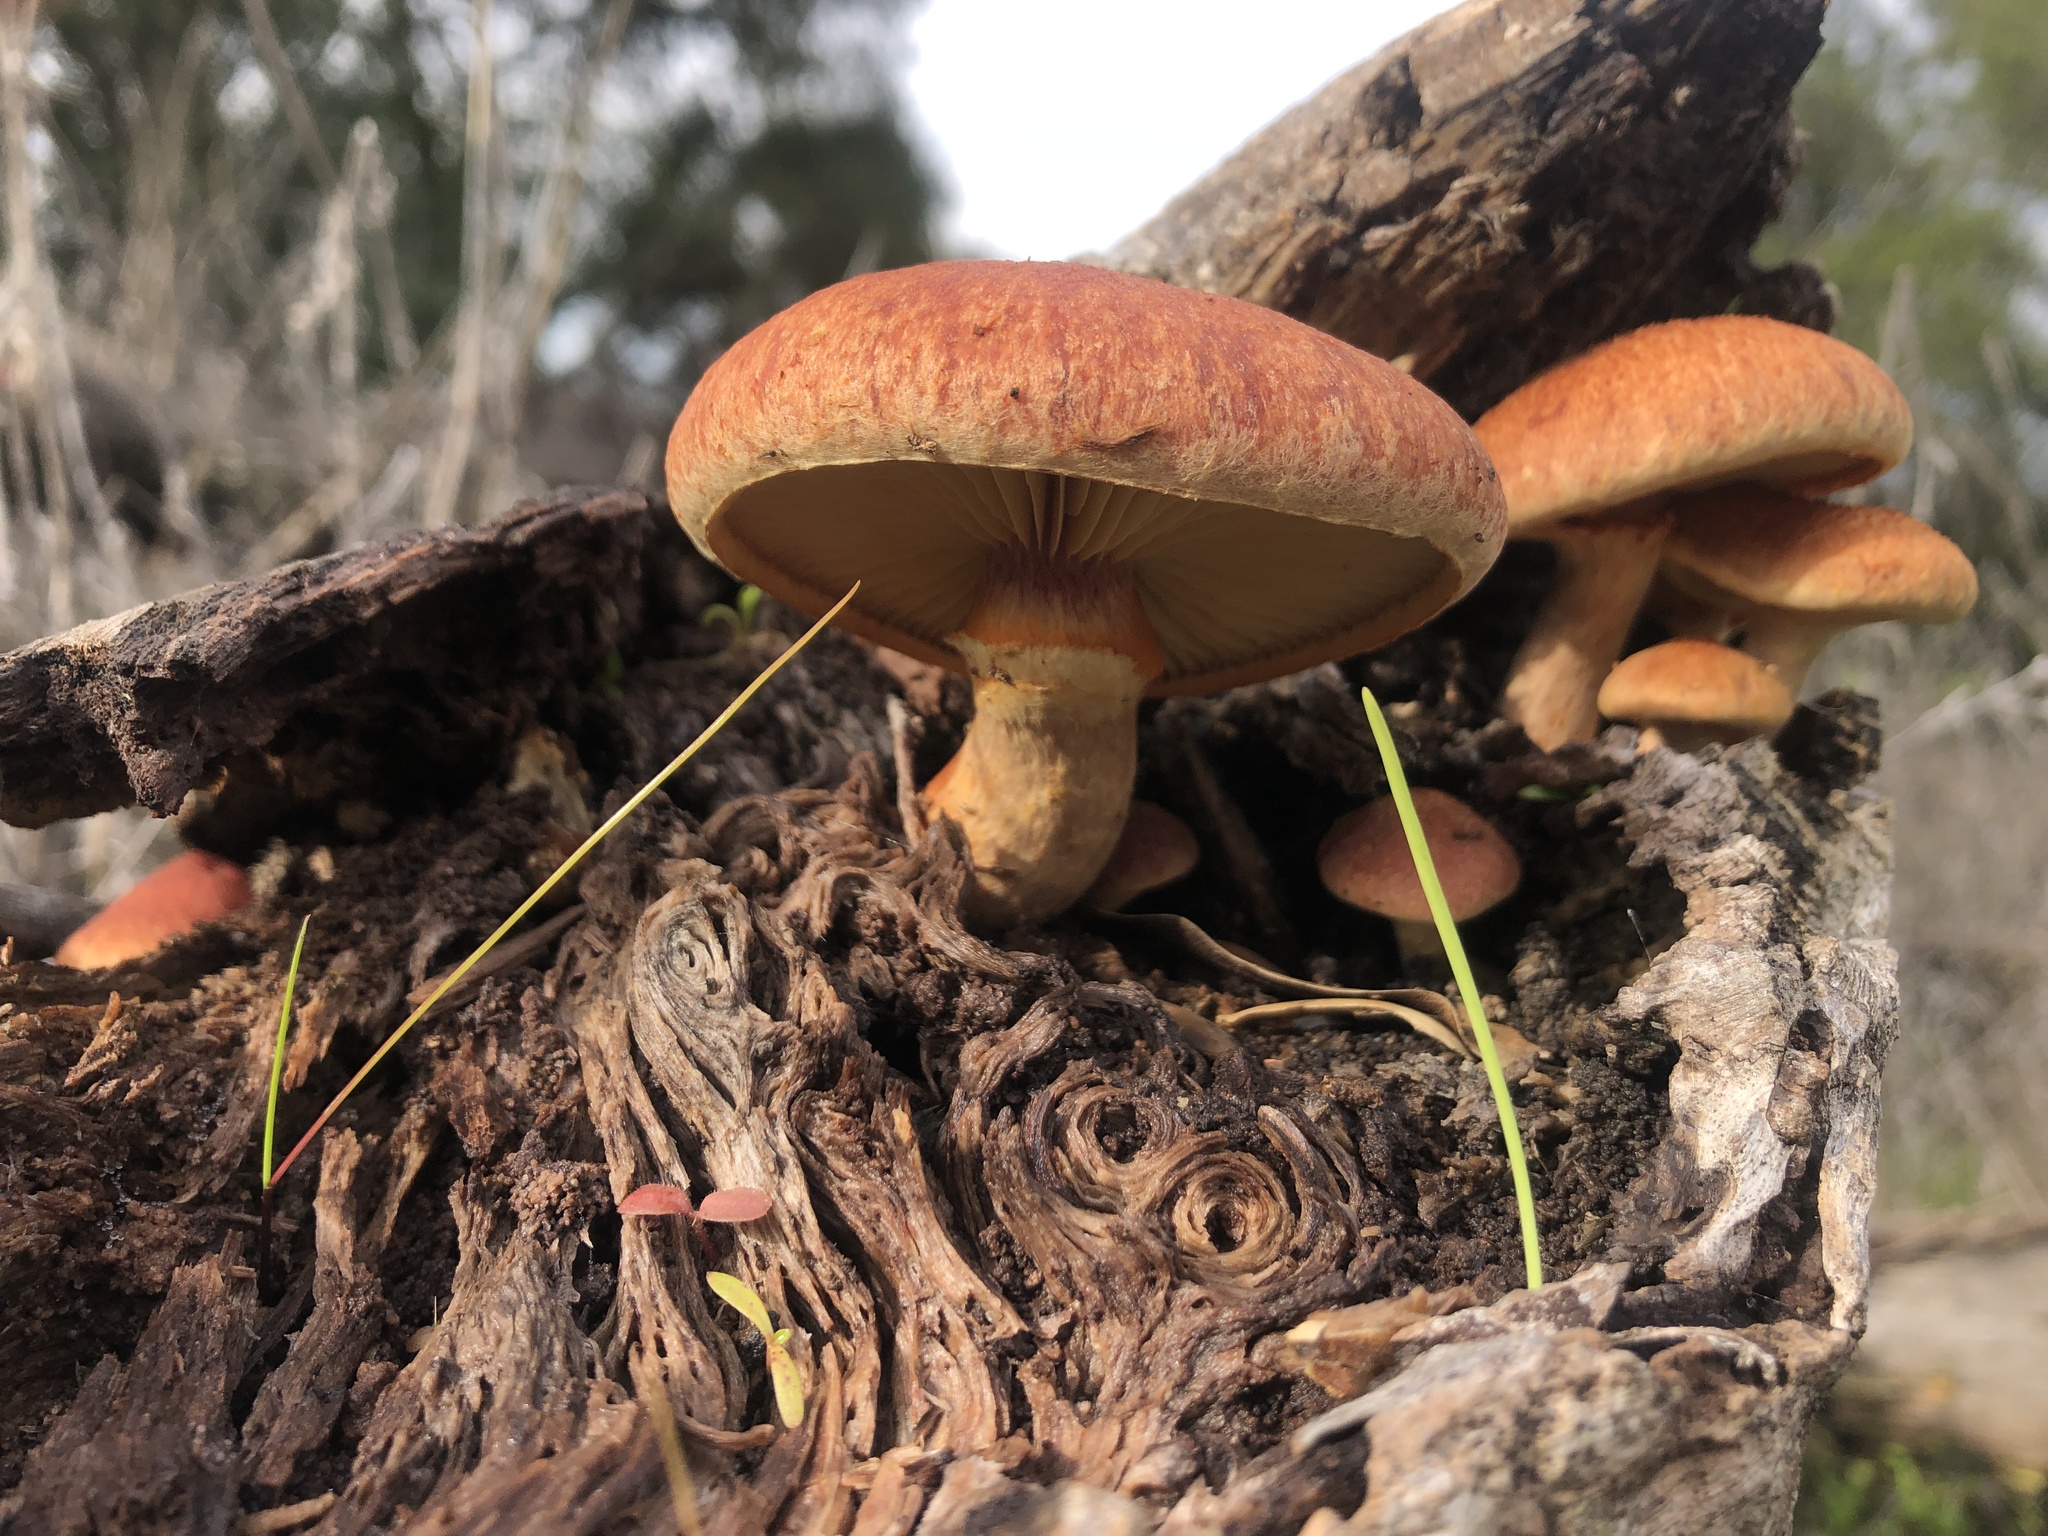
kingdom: Fungi
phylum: Basidiomycota
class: Agaricomycetes
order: Agaricales
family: Hymenogastraceae
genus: Gymnopilus
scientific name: Gymnopilus ventricosus
